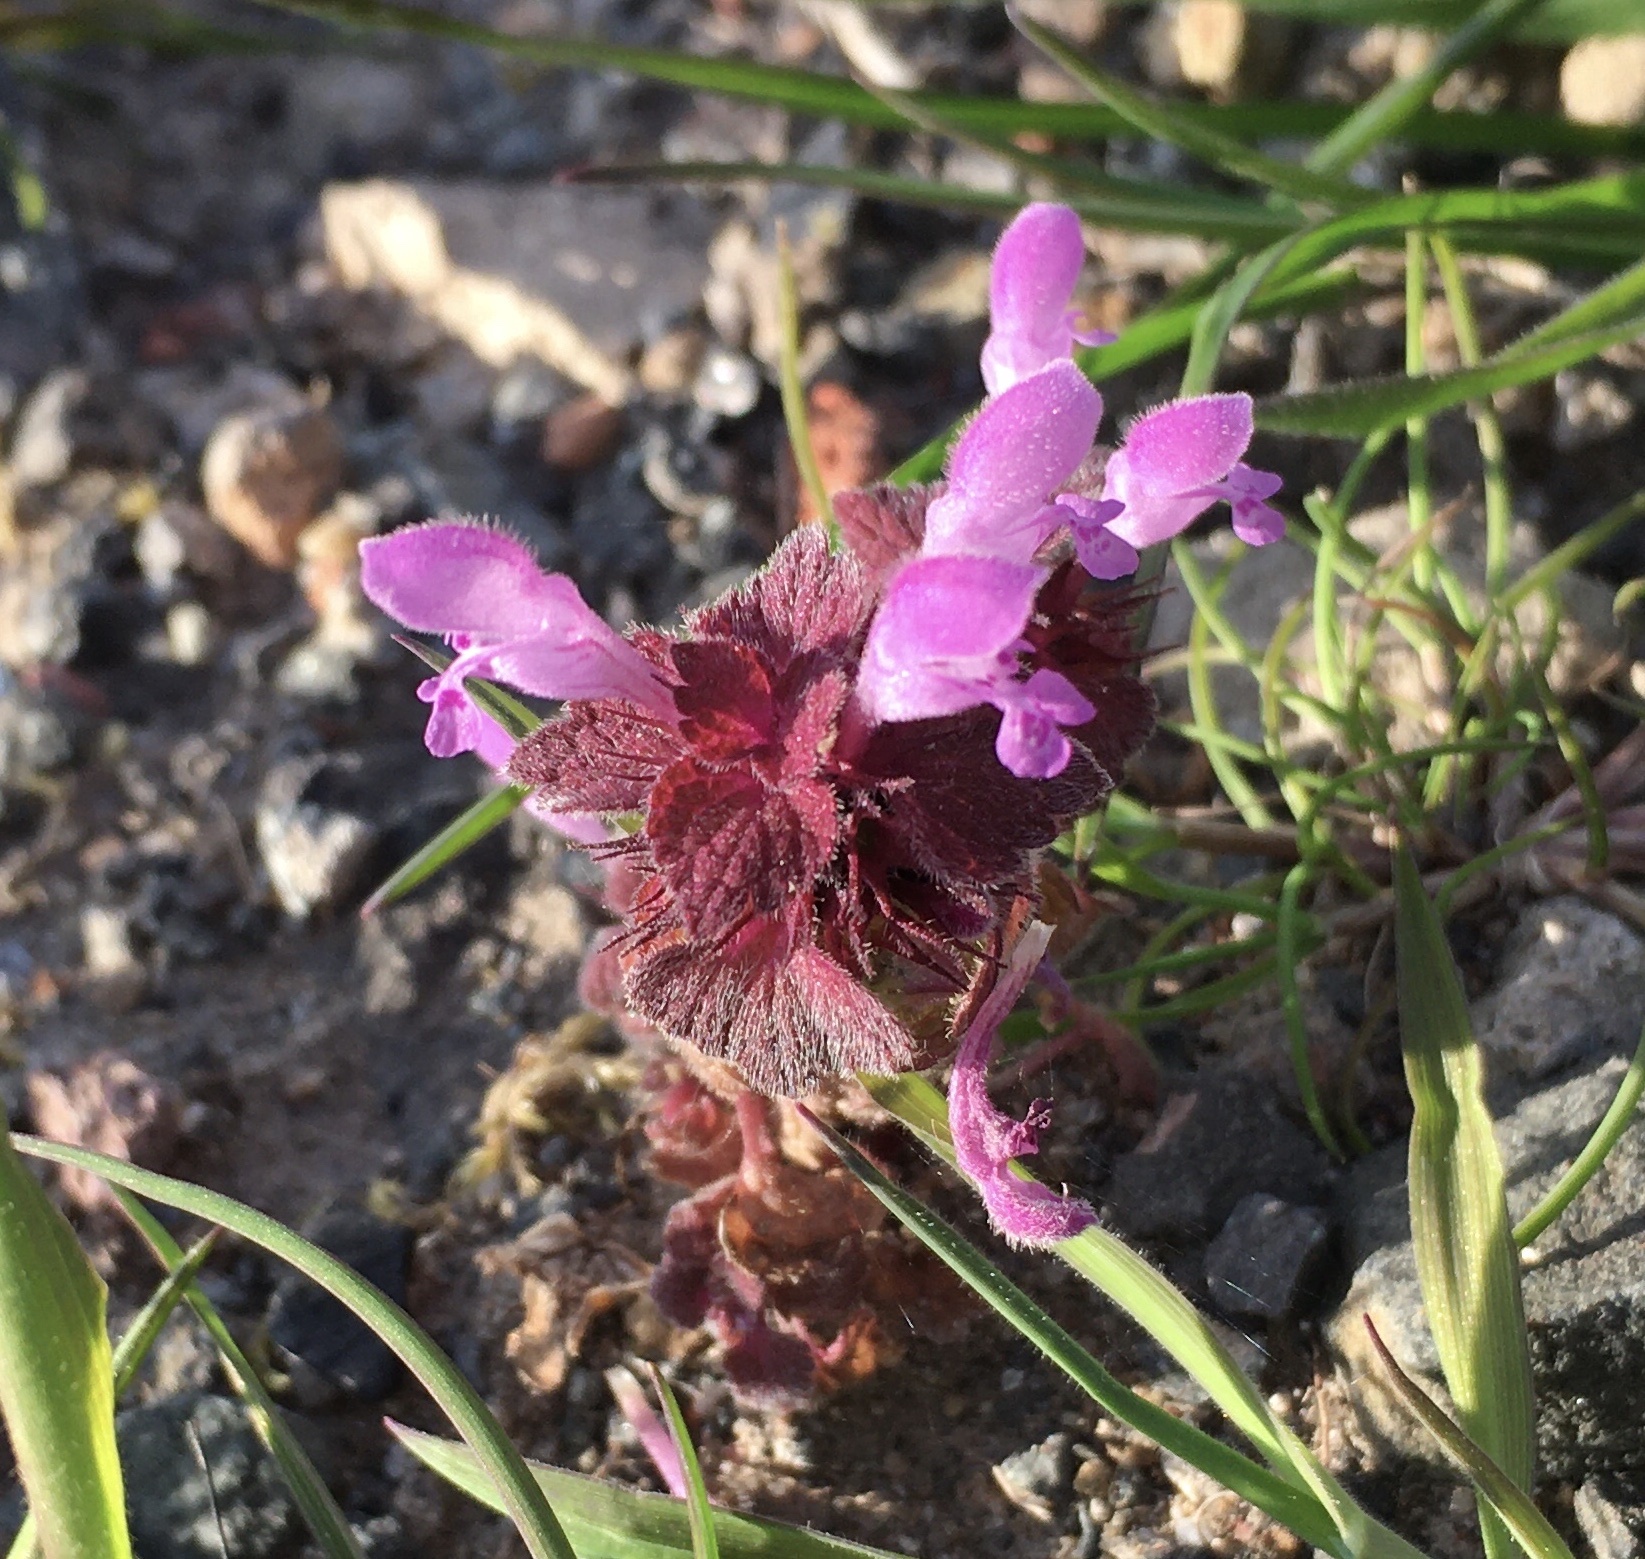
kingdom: Plantae
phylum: Tracheophyta
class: Magnoliopsida
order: Lamiales
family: Lamiaceae
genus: Lamium
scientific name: Lamium purpureum
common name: Red dead-nettle
